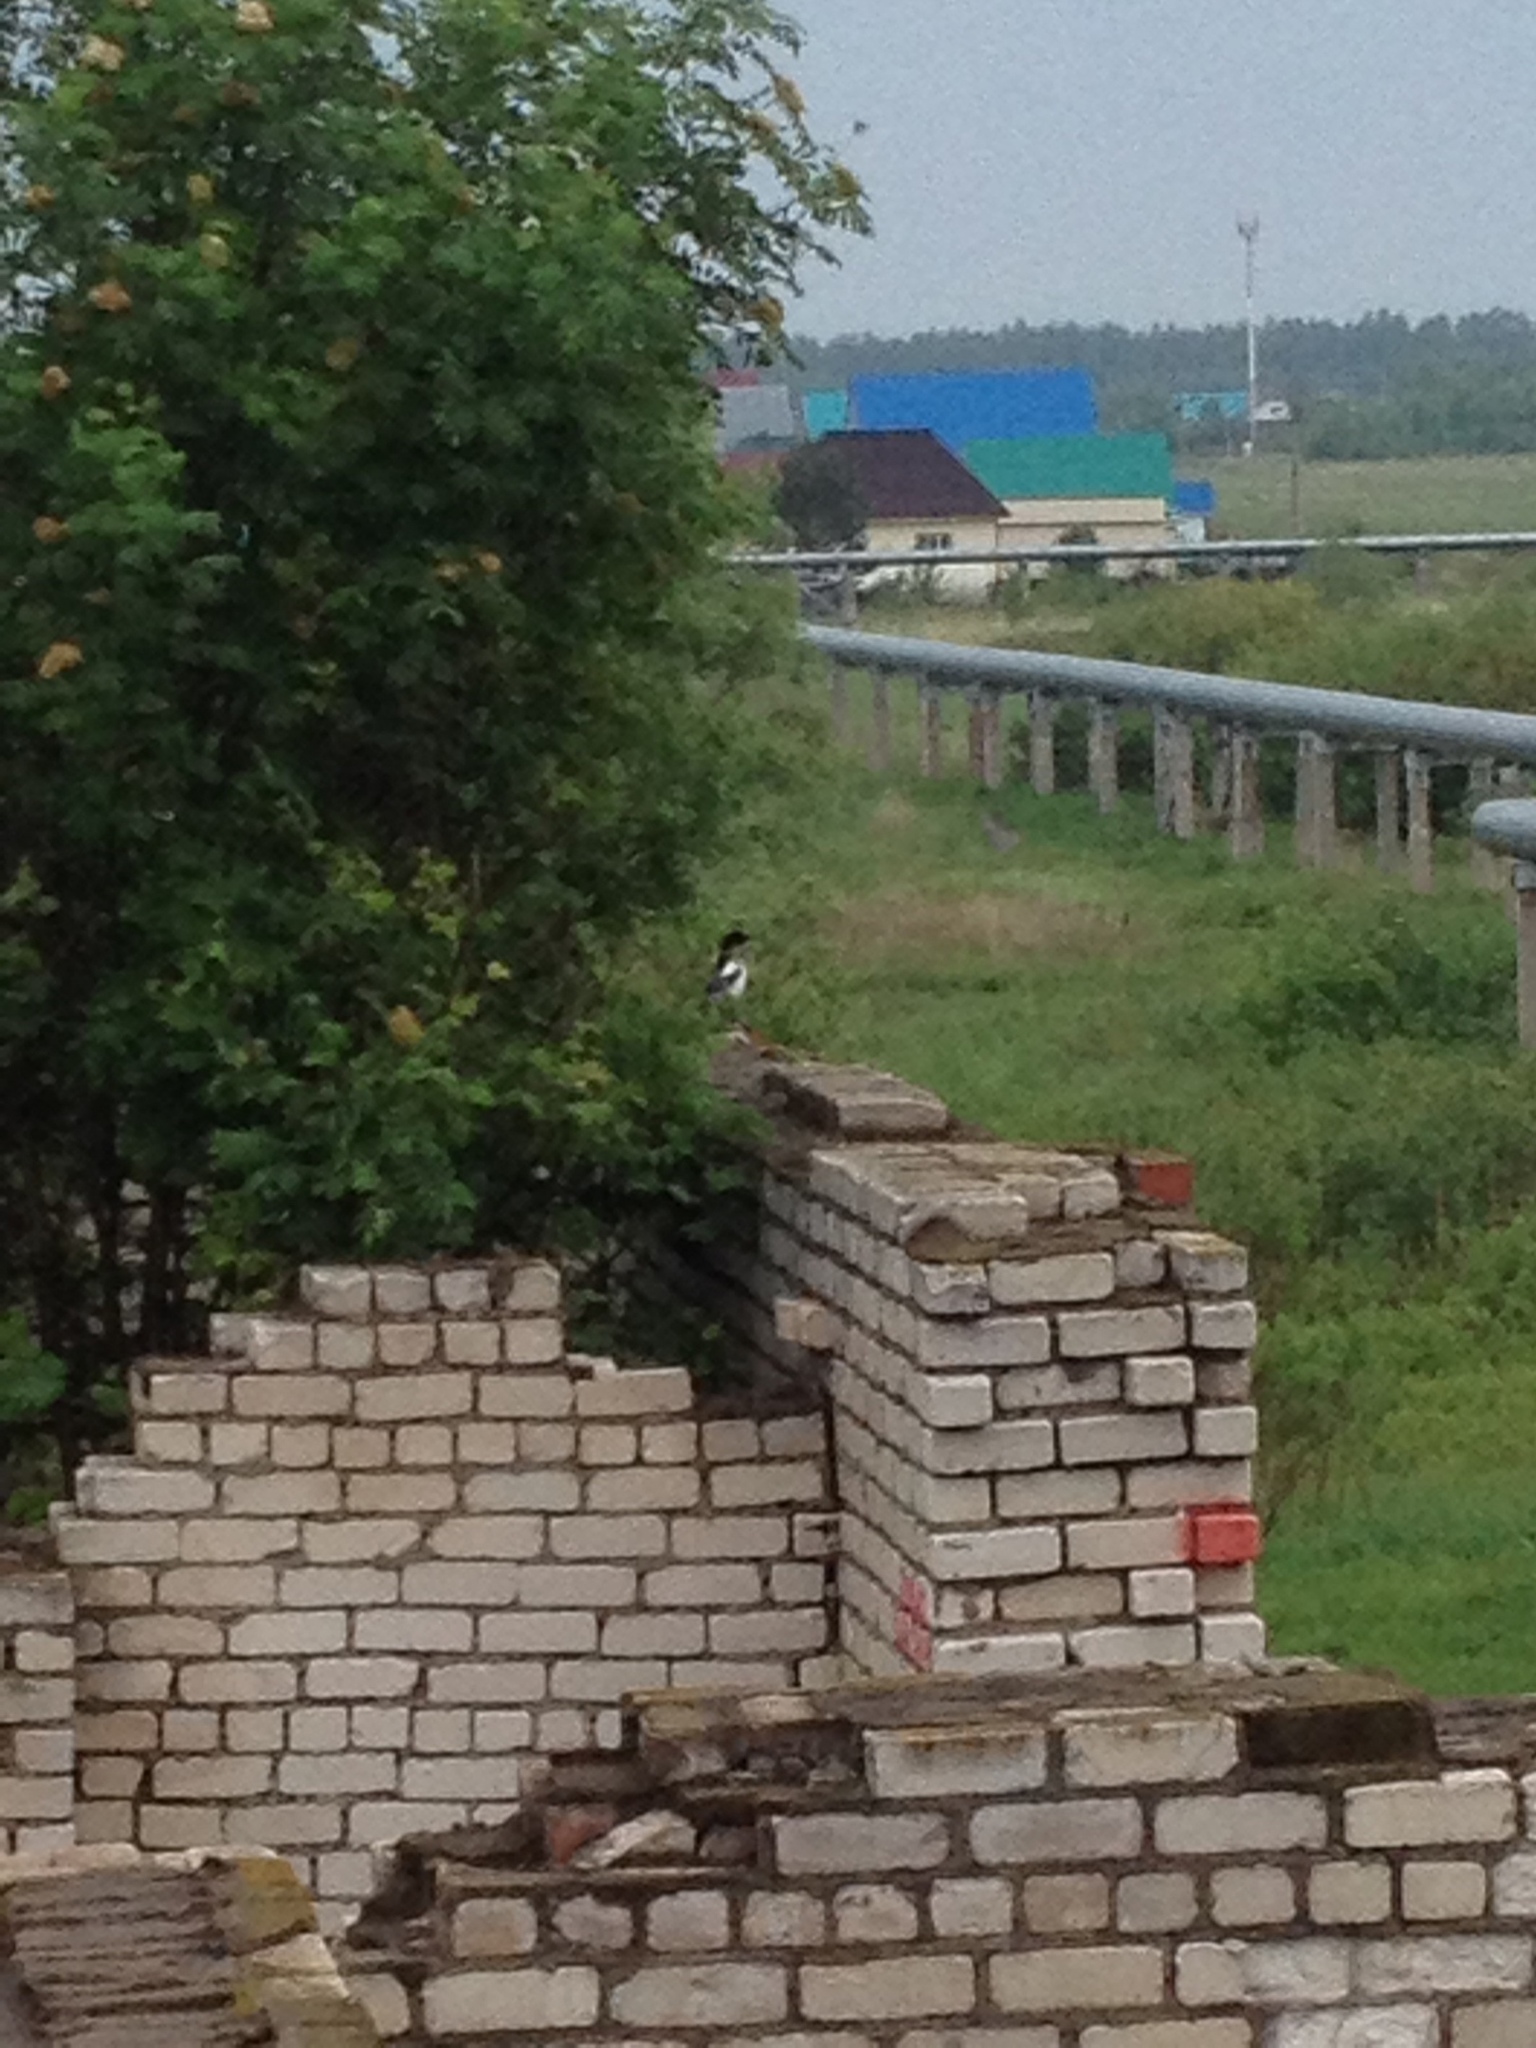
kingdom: Animalia
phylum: Chordata
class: Aves
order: Passeriformes
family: Corvidae
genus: Pica
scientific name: Pica pica
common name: Eurasian magpie
